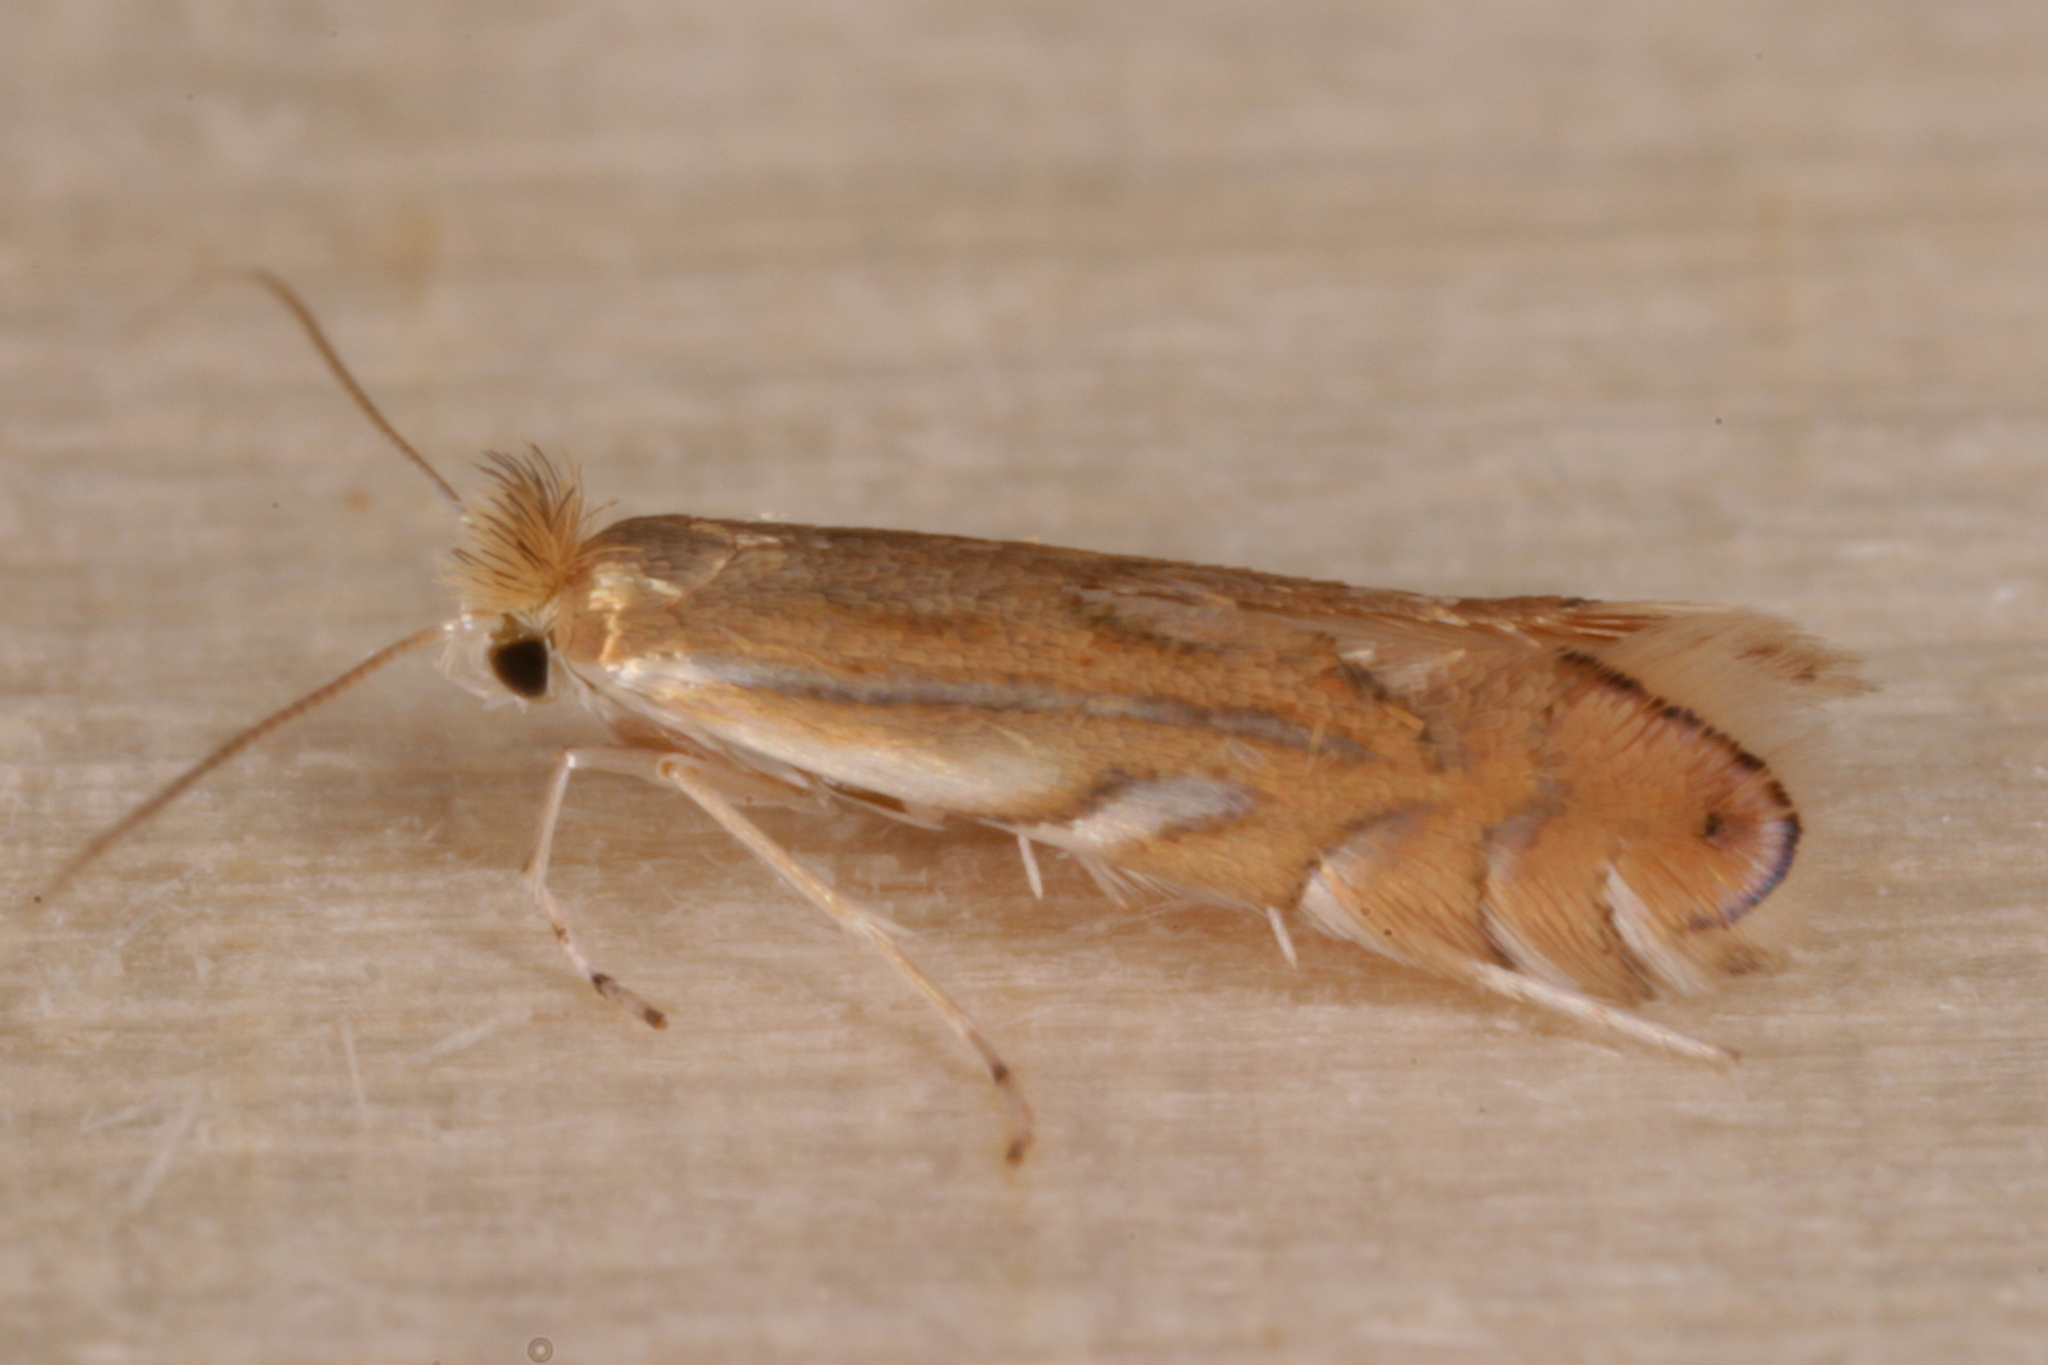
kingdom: Animalia
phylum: Arthropoda
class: Insecta
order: Lepidoptera
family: Gracillariidae
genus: Phyllonorycter
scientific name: Phyllonorycter quercifoliella
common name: Common oak midget
